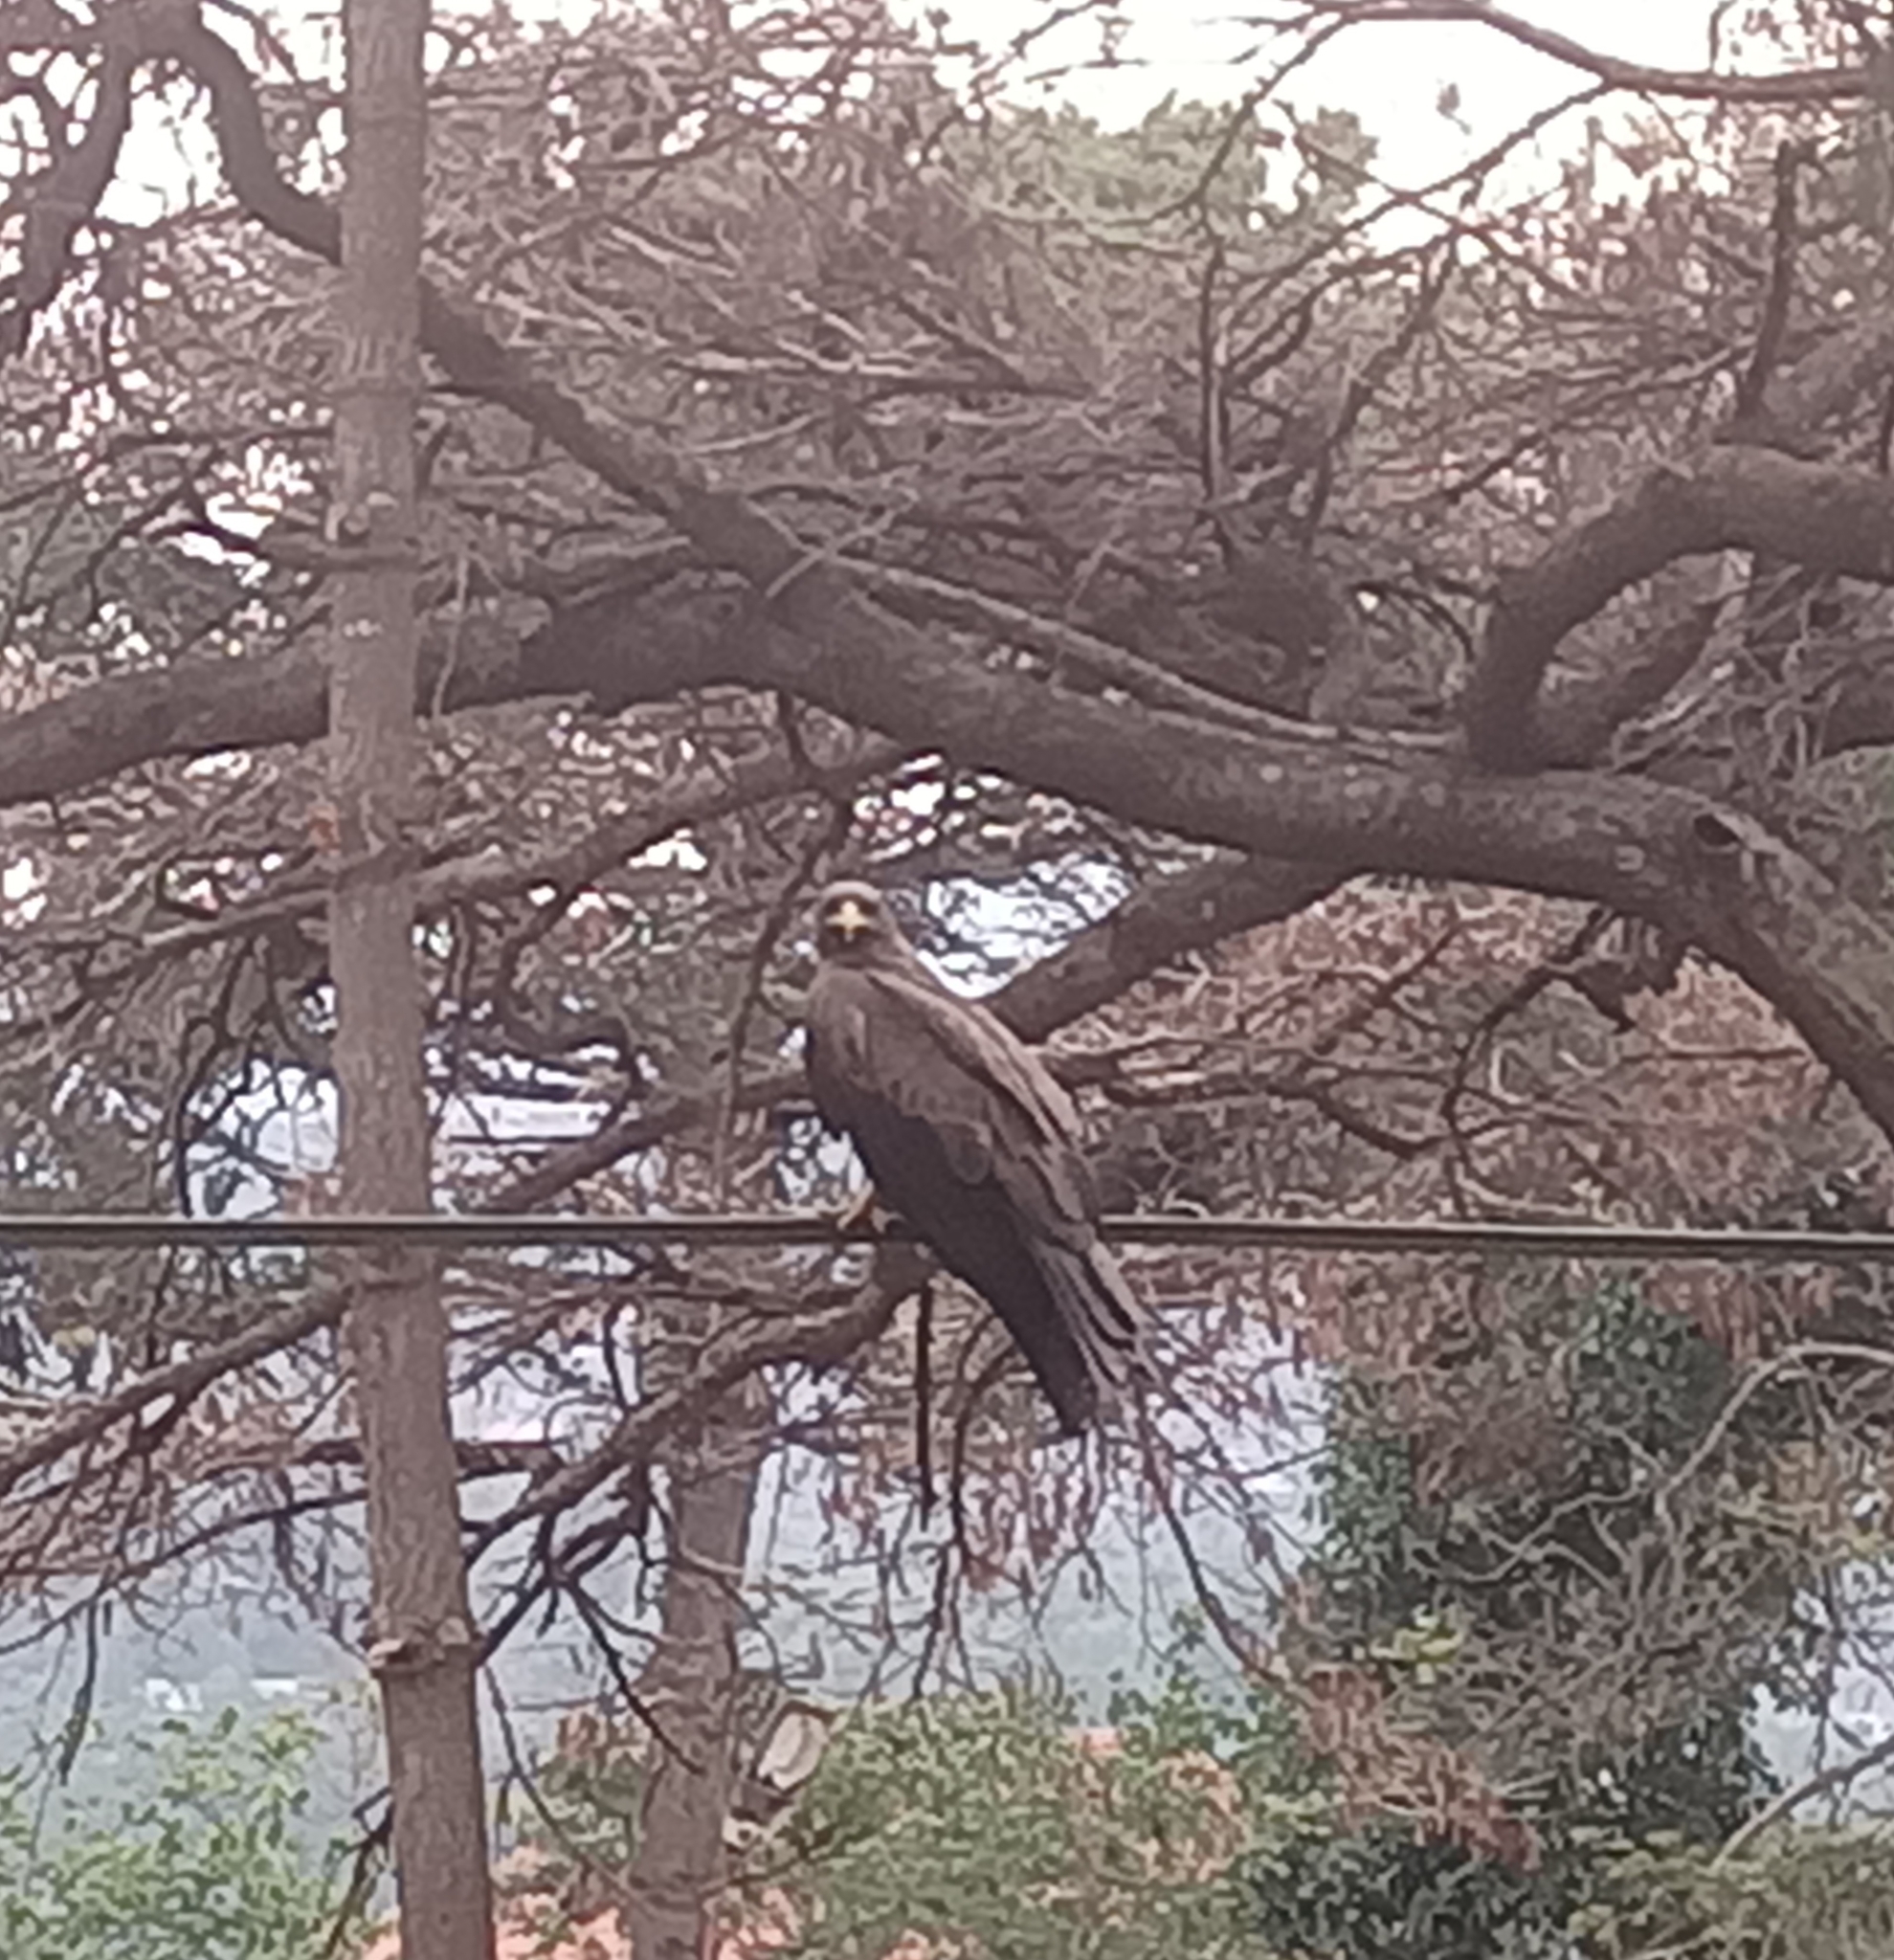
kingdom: Animalia
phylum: Chordata
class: Aves
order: Accipitriformes
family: Accipitridae
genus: Milvus
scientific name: Milvus migrans
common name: Black kite
